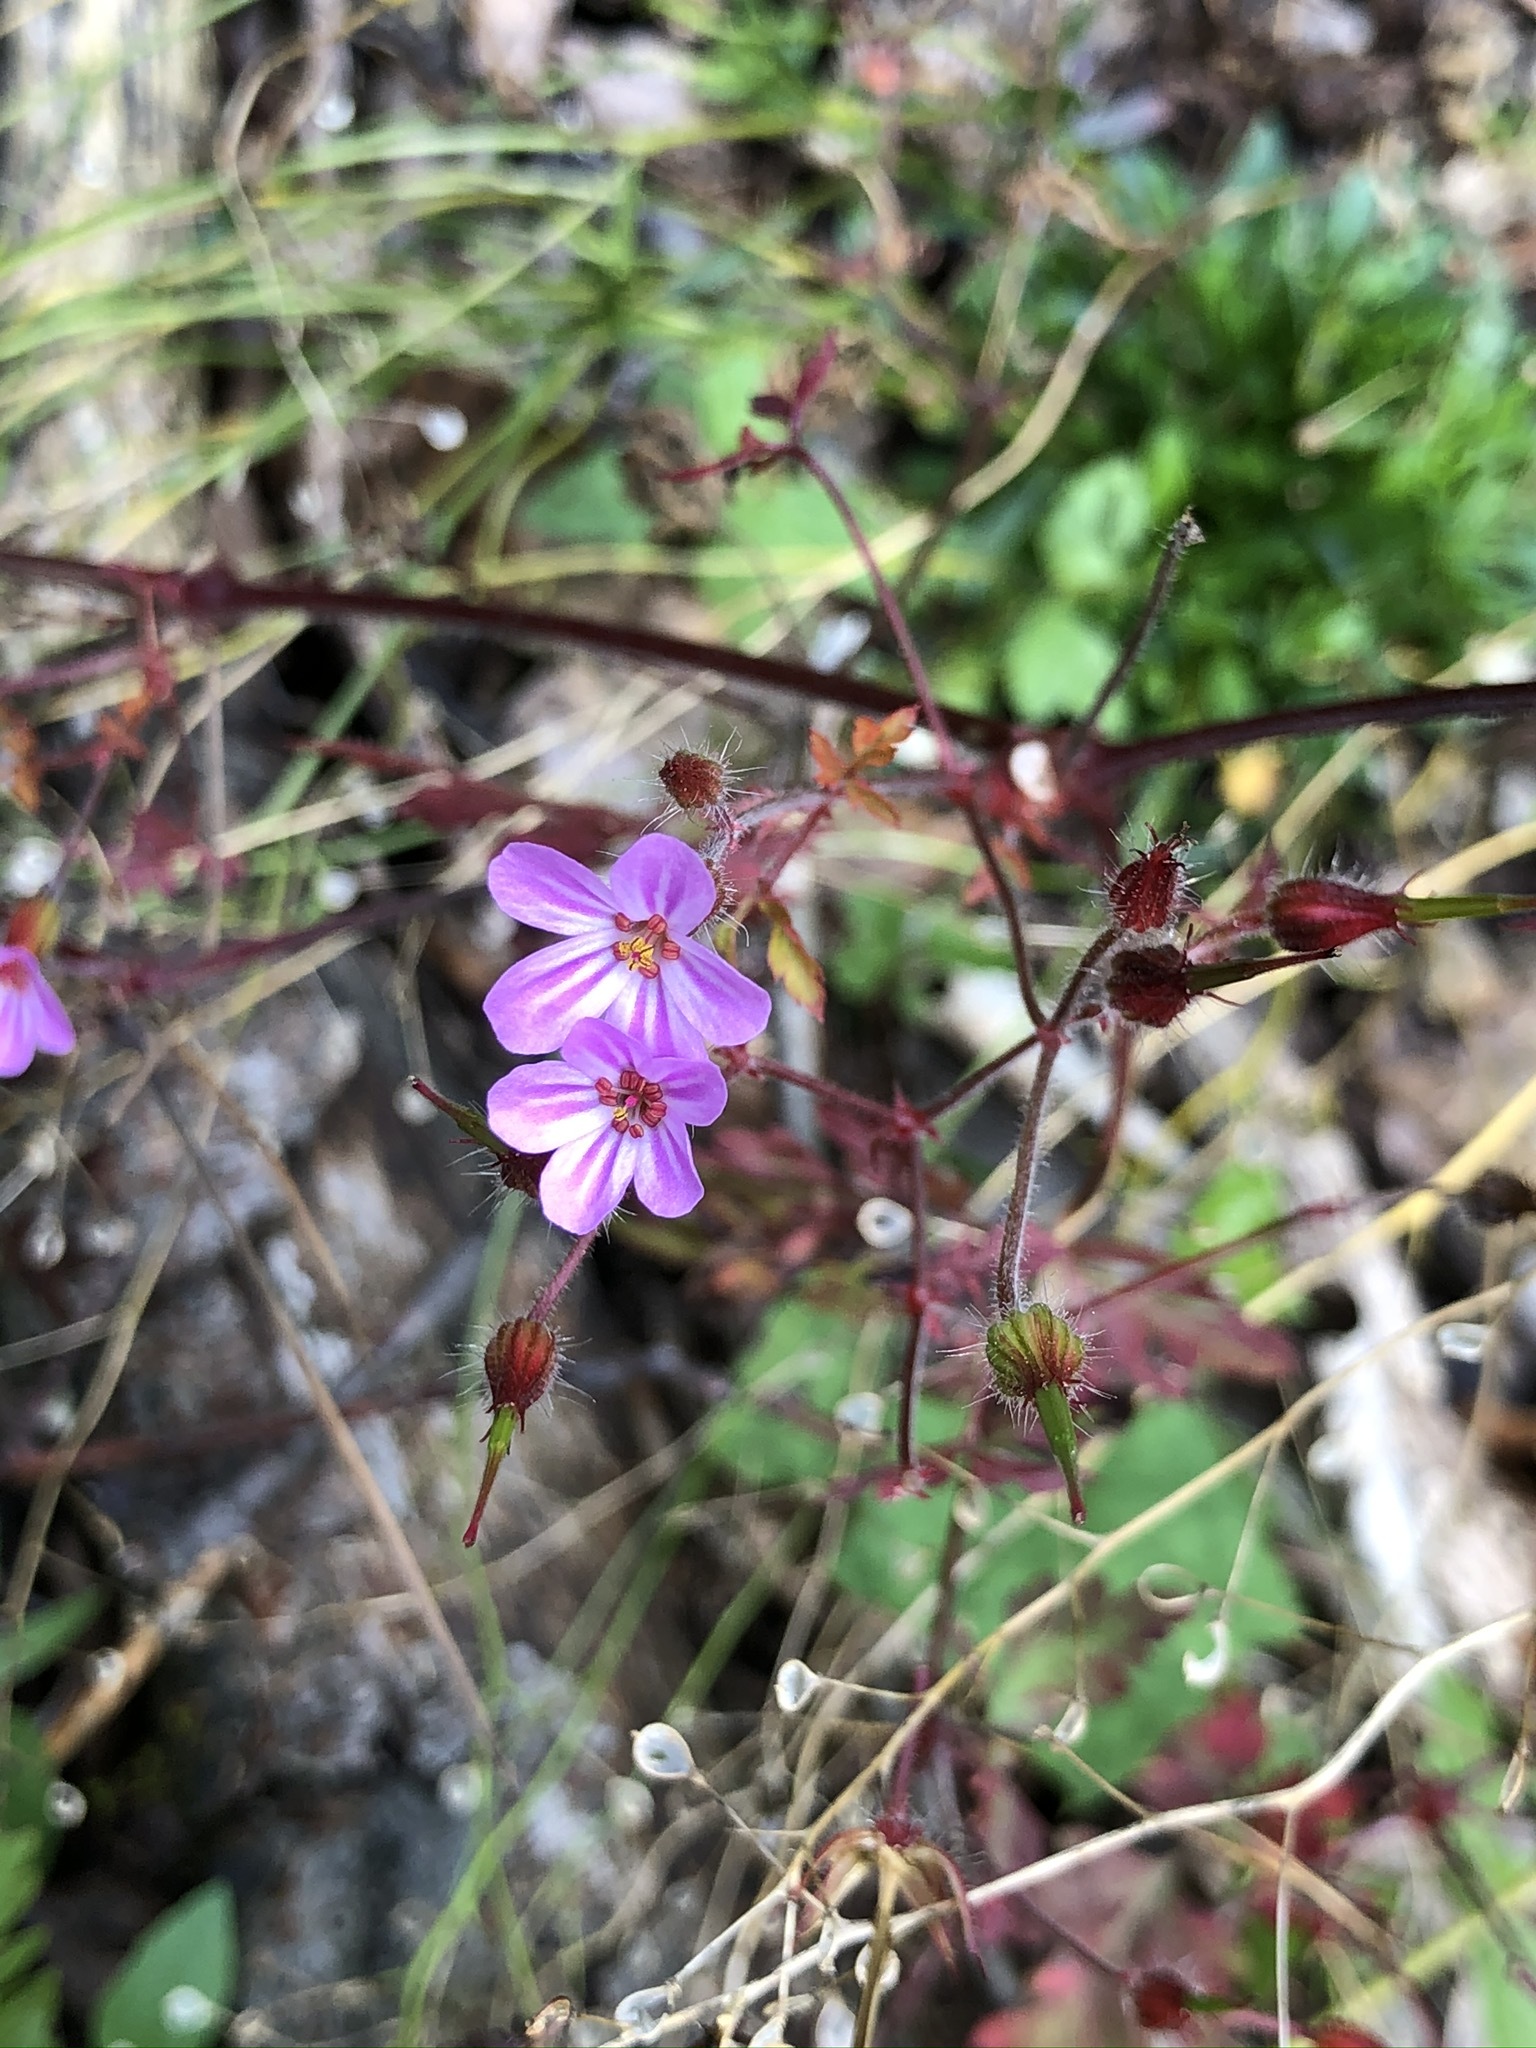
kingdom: Plantae
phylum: Tracheophyta
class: Magnoliopsida
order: Geraniales
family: Geraniaceae
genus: Geranium
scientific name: Geranium robertianum
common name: Herb-robert
